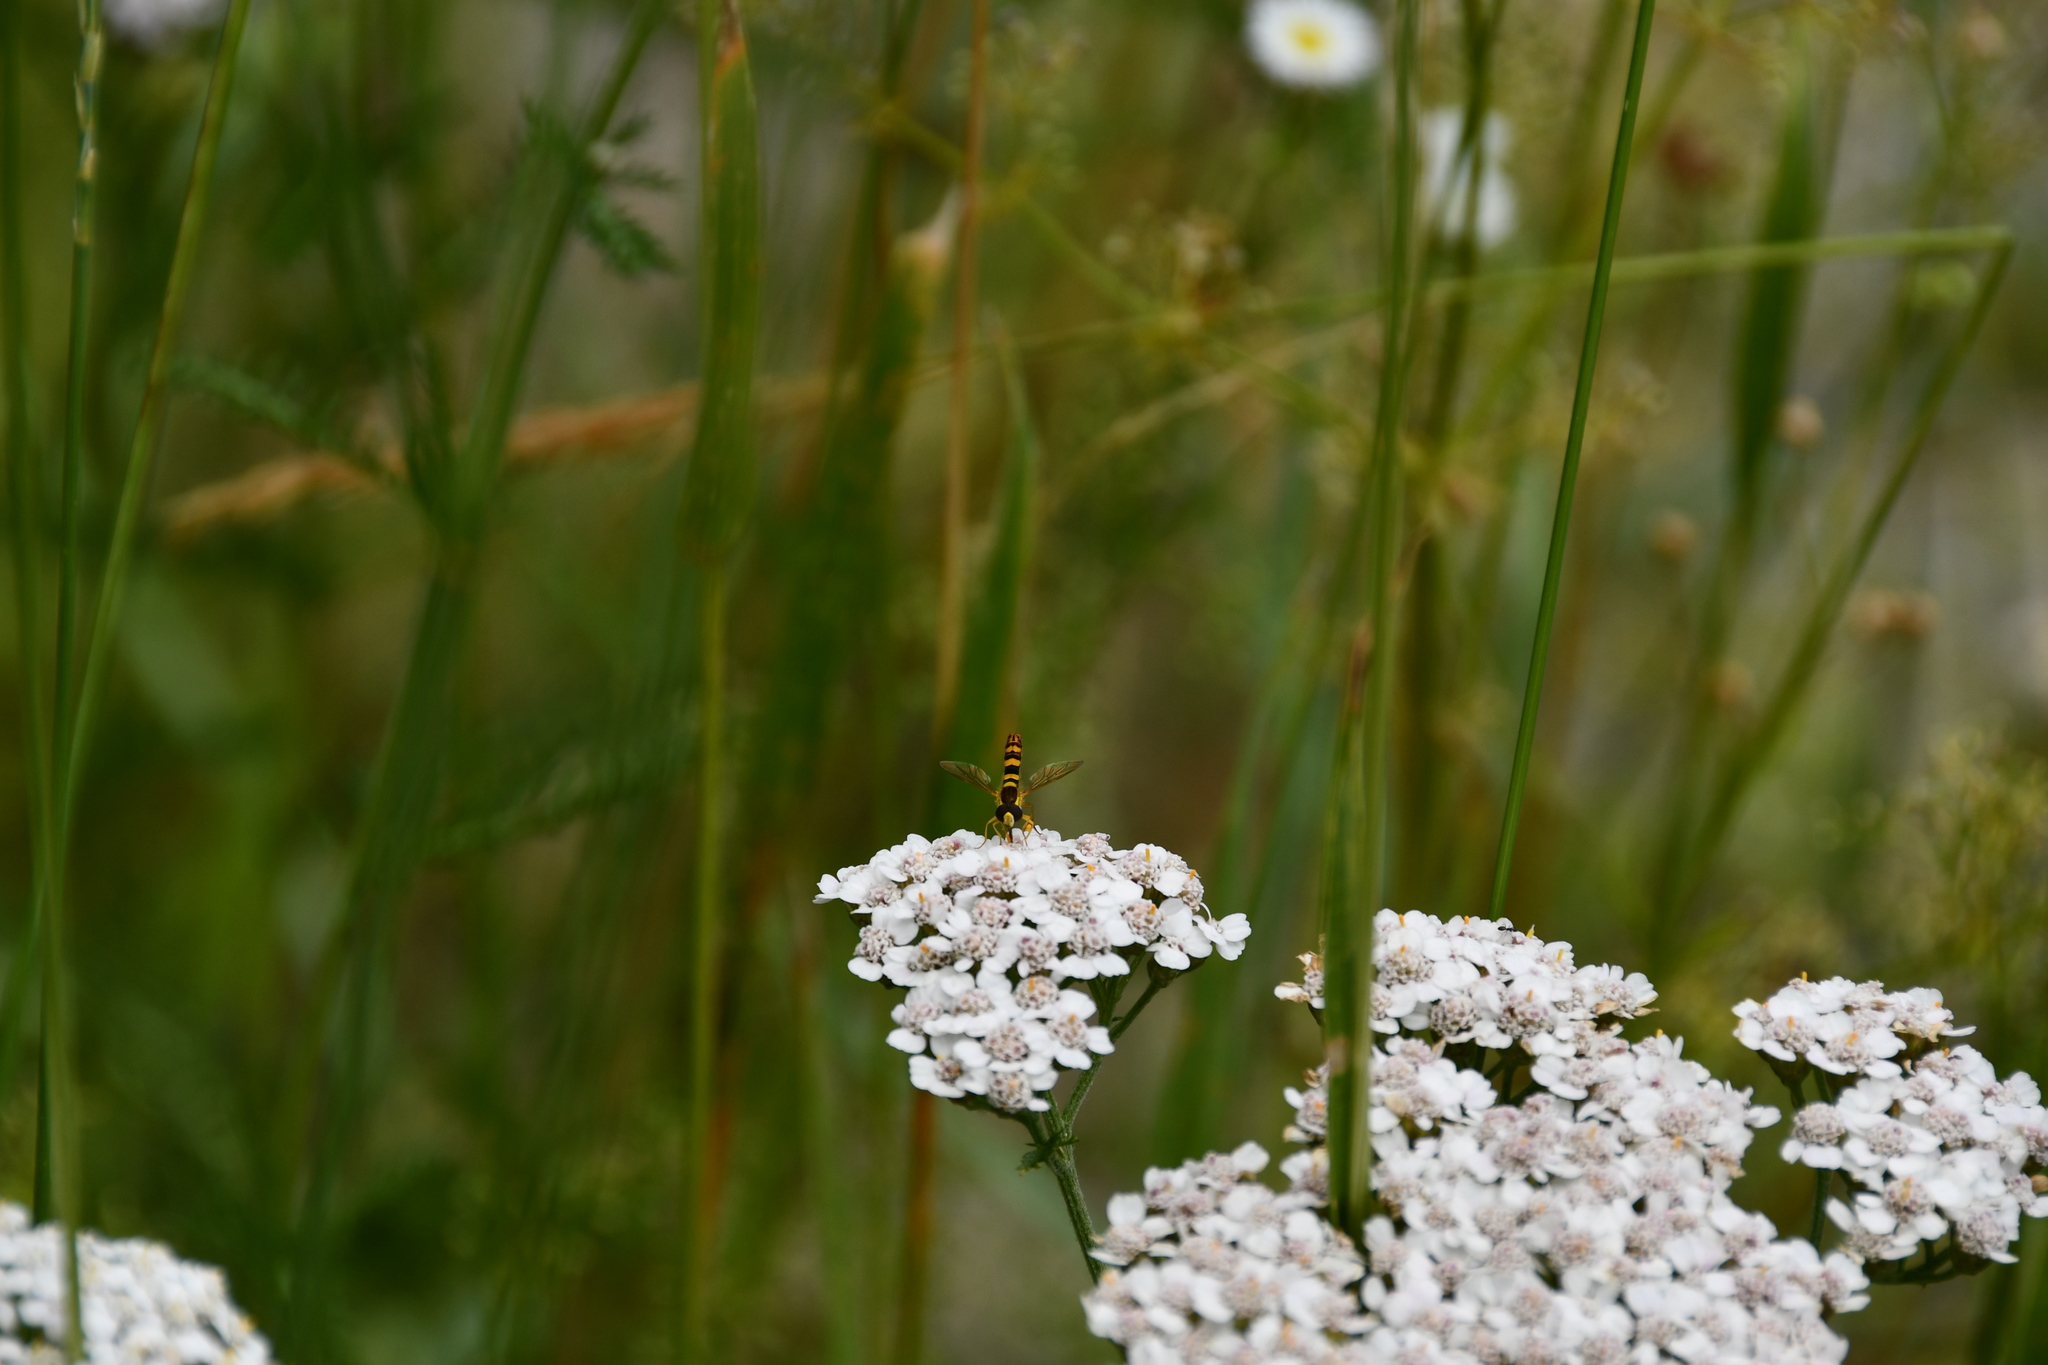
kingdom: Animalia
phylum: Arthropoda
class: Insecta
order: Diptera
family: Syrphidae
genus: Sphaerophoria
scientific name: Sphaerophoria scripta
